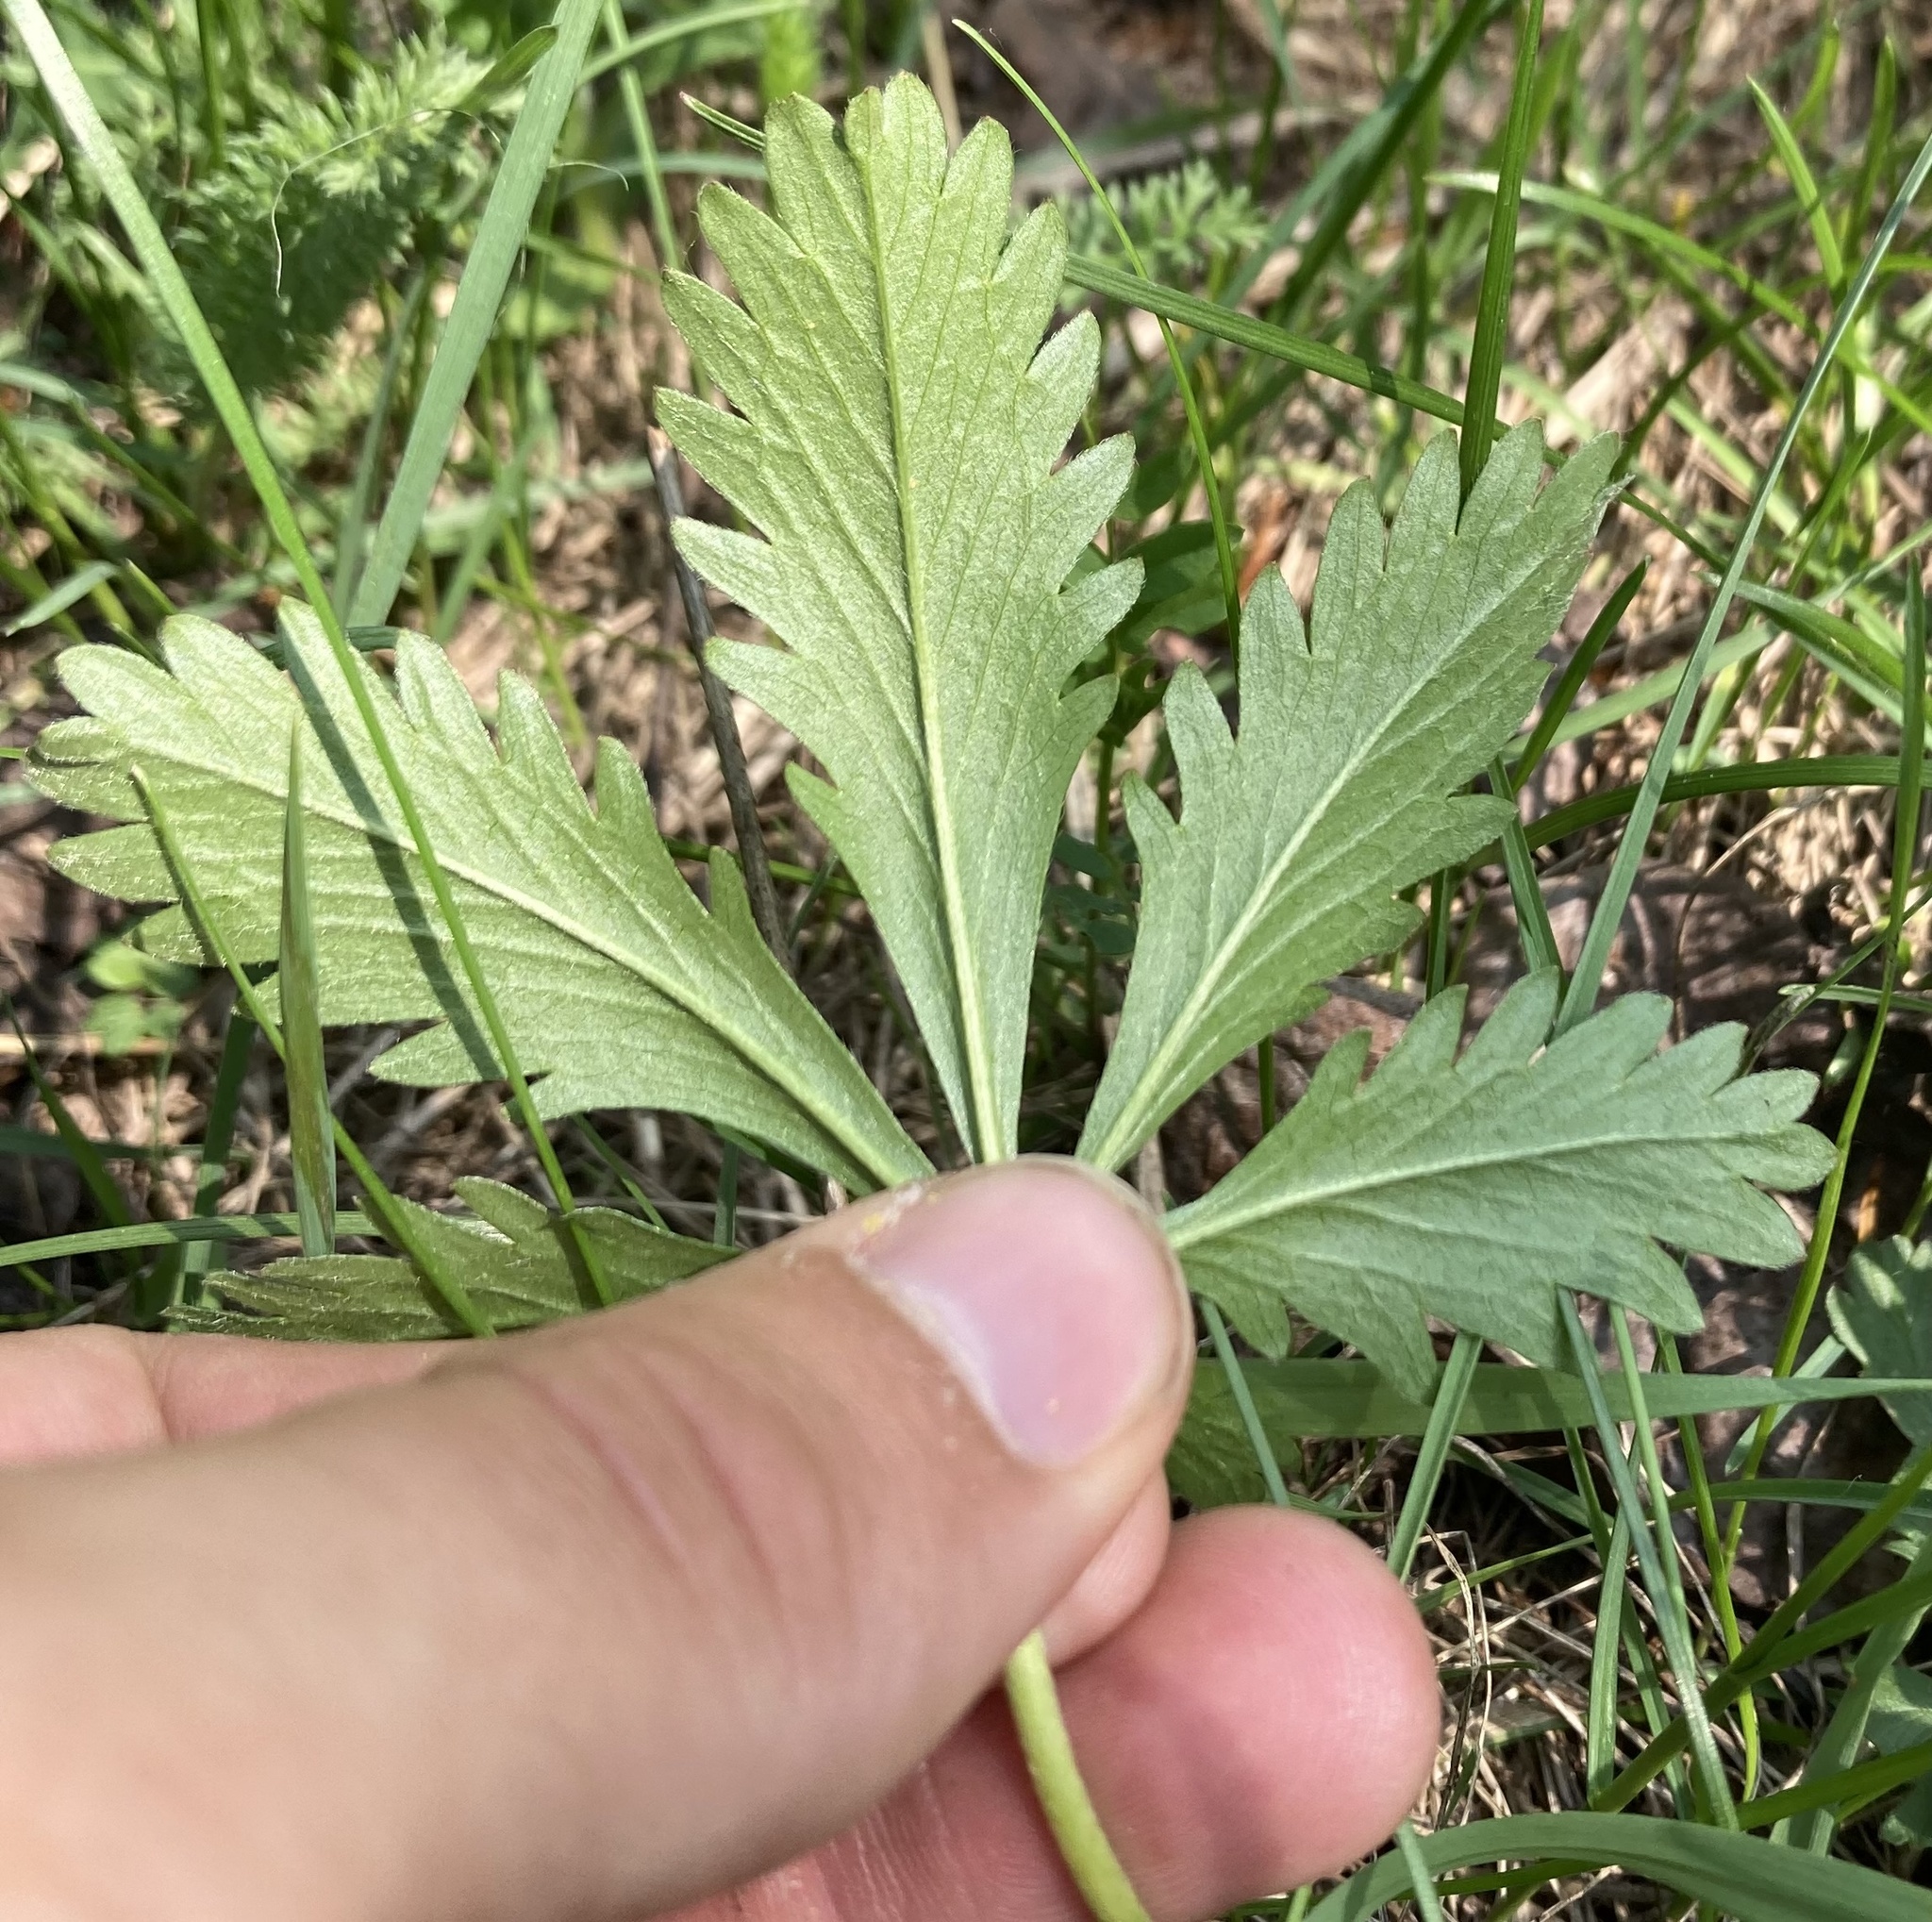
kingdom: Plantae
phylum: Tracheophyta
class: Magnoliopsida
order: Rosales
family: Rosaceae
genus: Potentilla
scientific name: Potentilla gracilis
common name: Graceful cinquefoil
